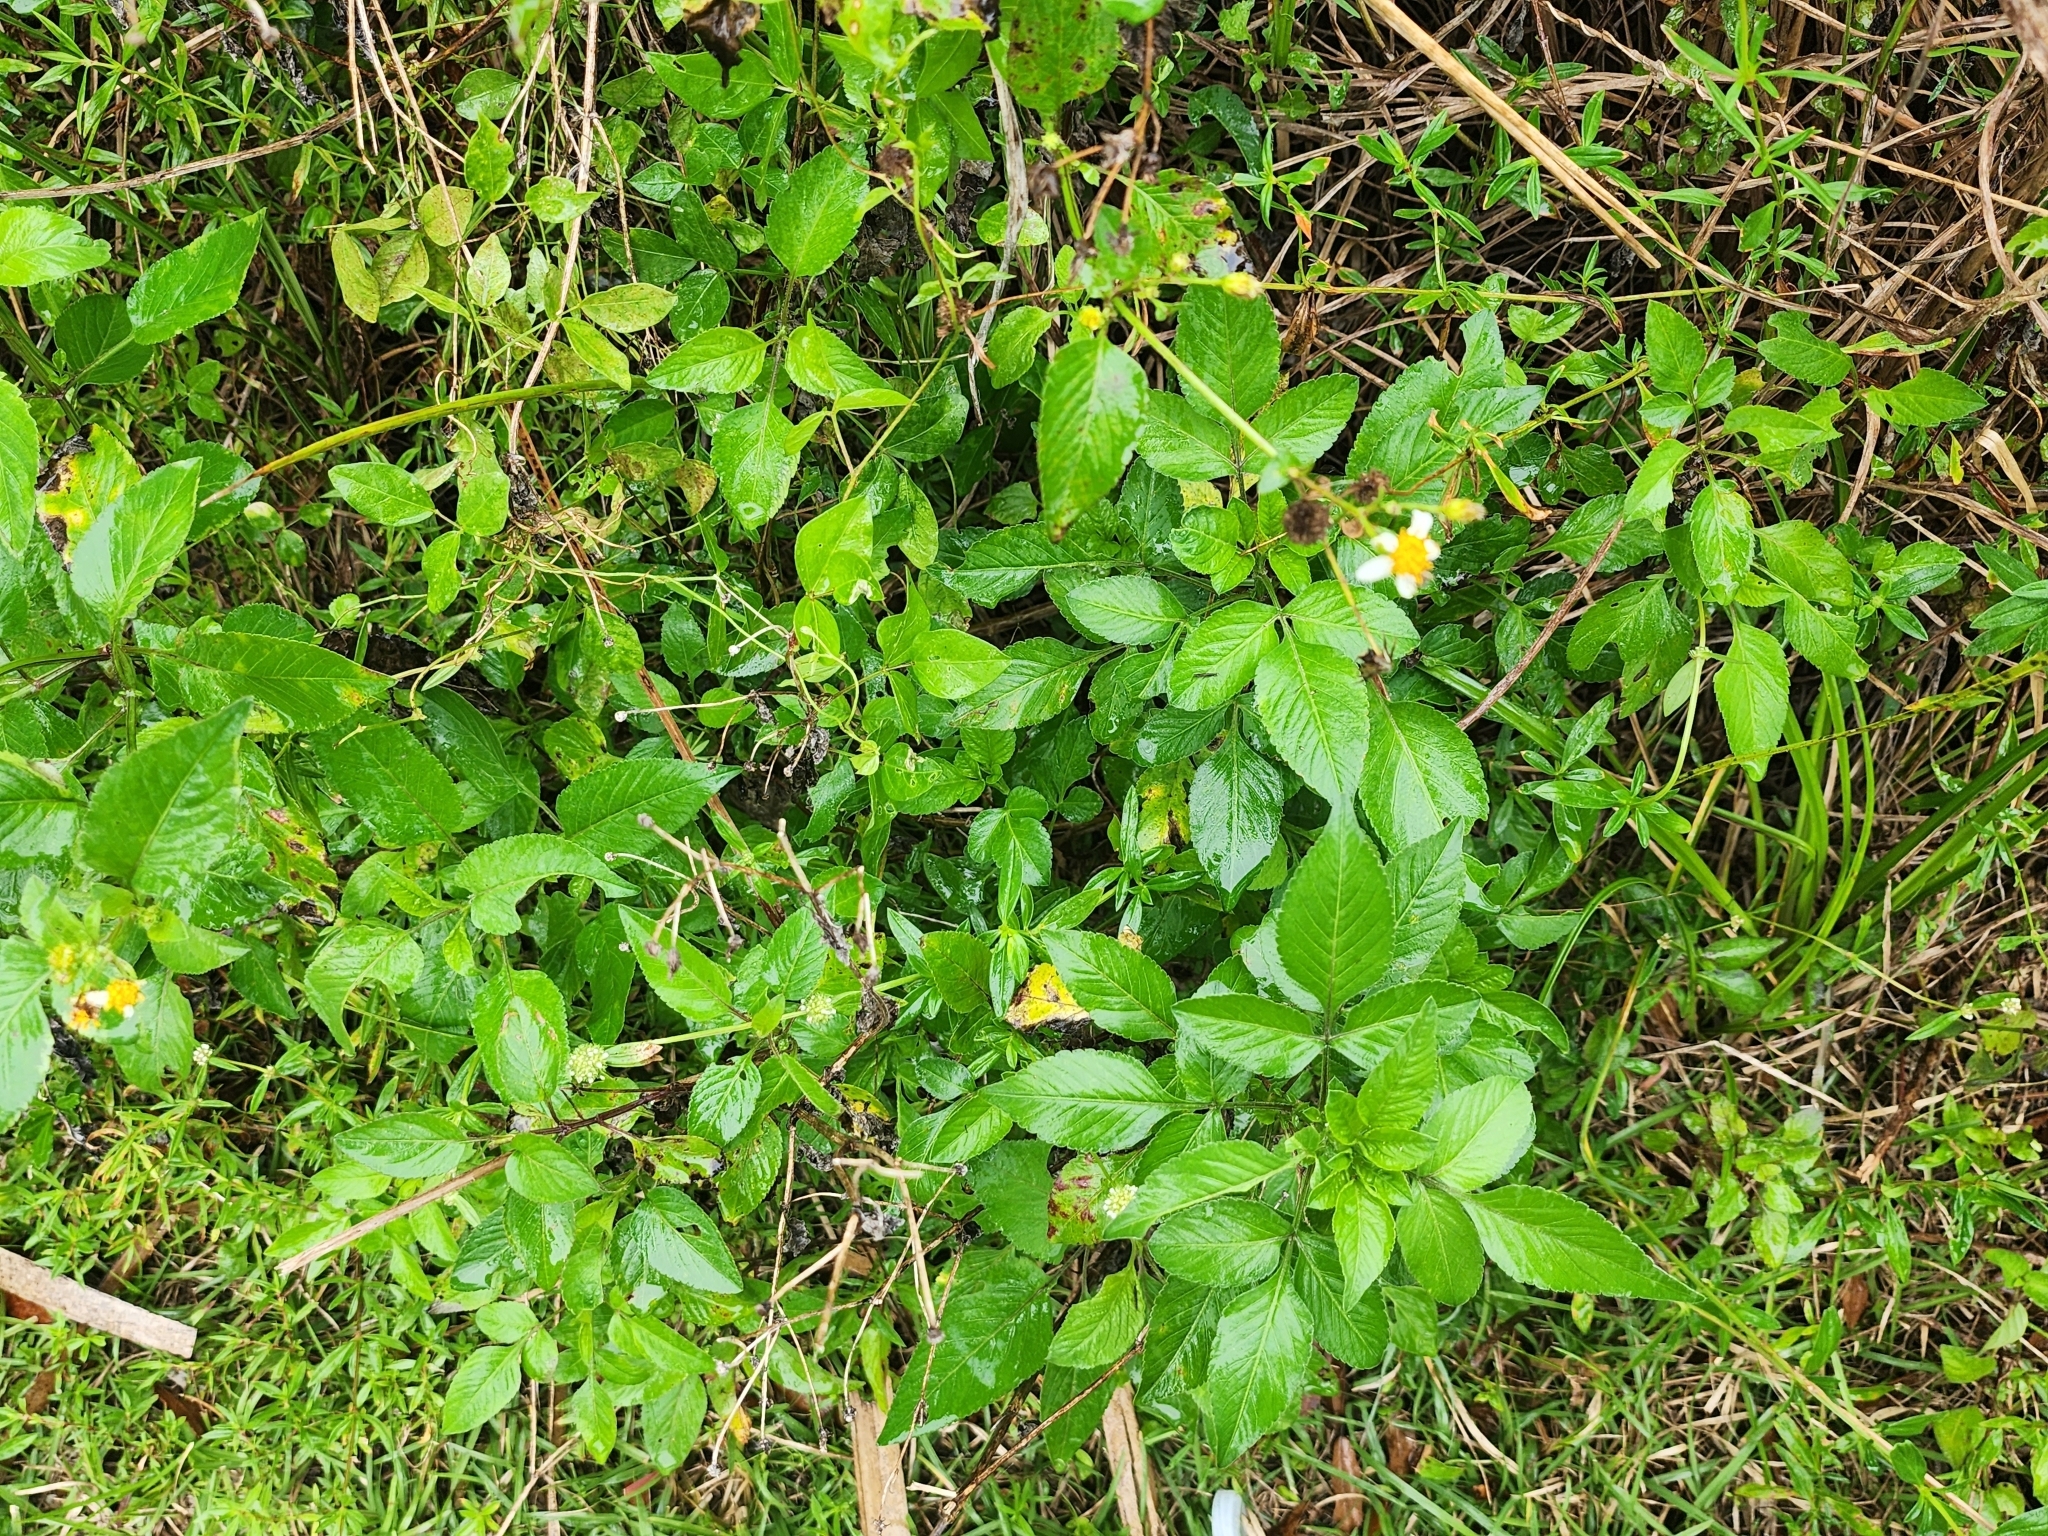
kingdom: Plantae
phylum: Tracheophyta
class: Magnoliopsida
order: Asterales
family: Asteraceae
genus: Bidens
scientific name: Bidens alba
